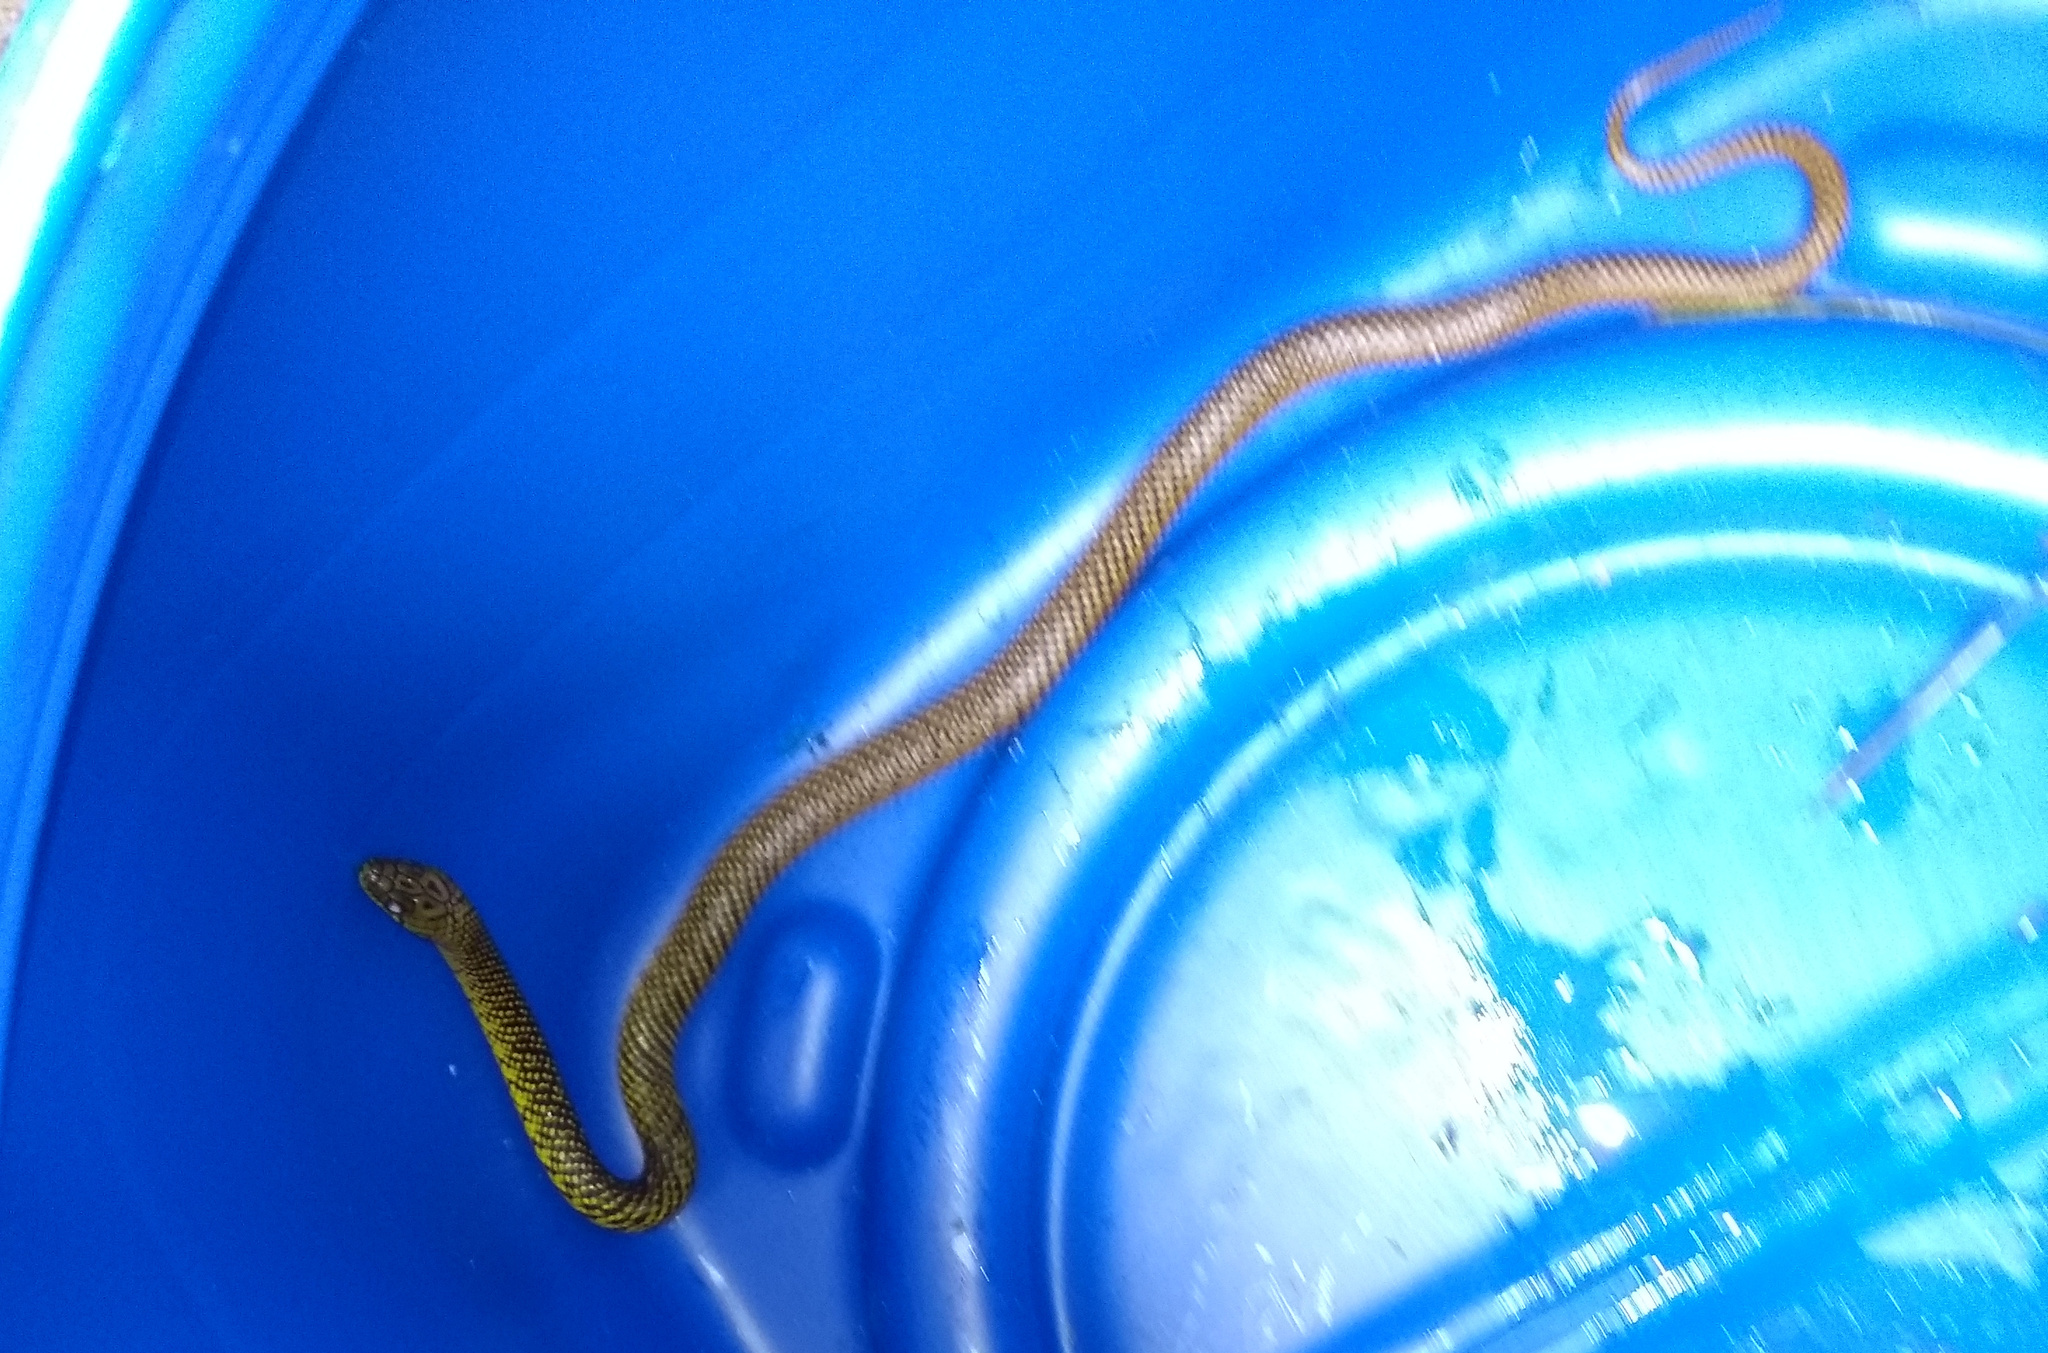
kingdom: Animalia
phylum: Chordata
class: Squamata
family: Colubridae
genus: Erythrolamprus
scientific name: Erythrolamprus miliaris
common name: Military ground snake
